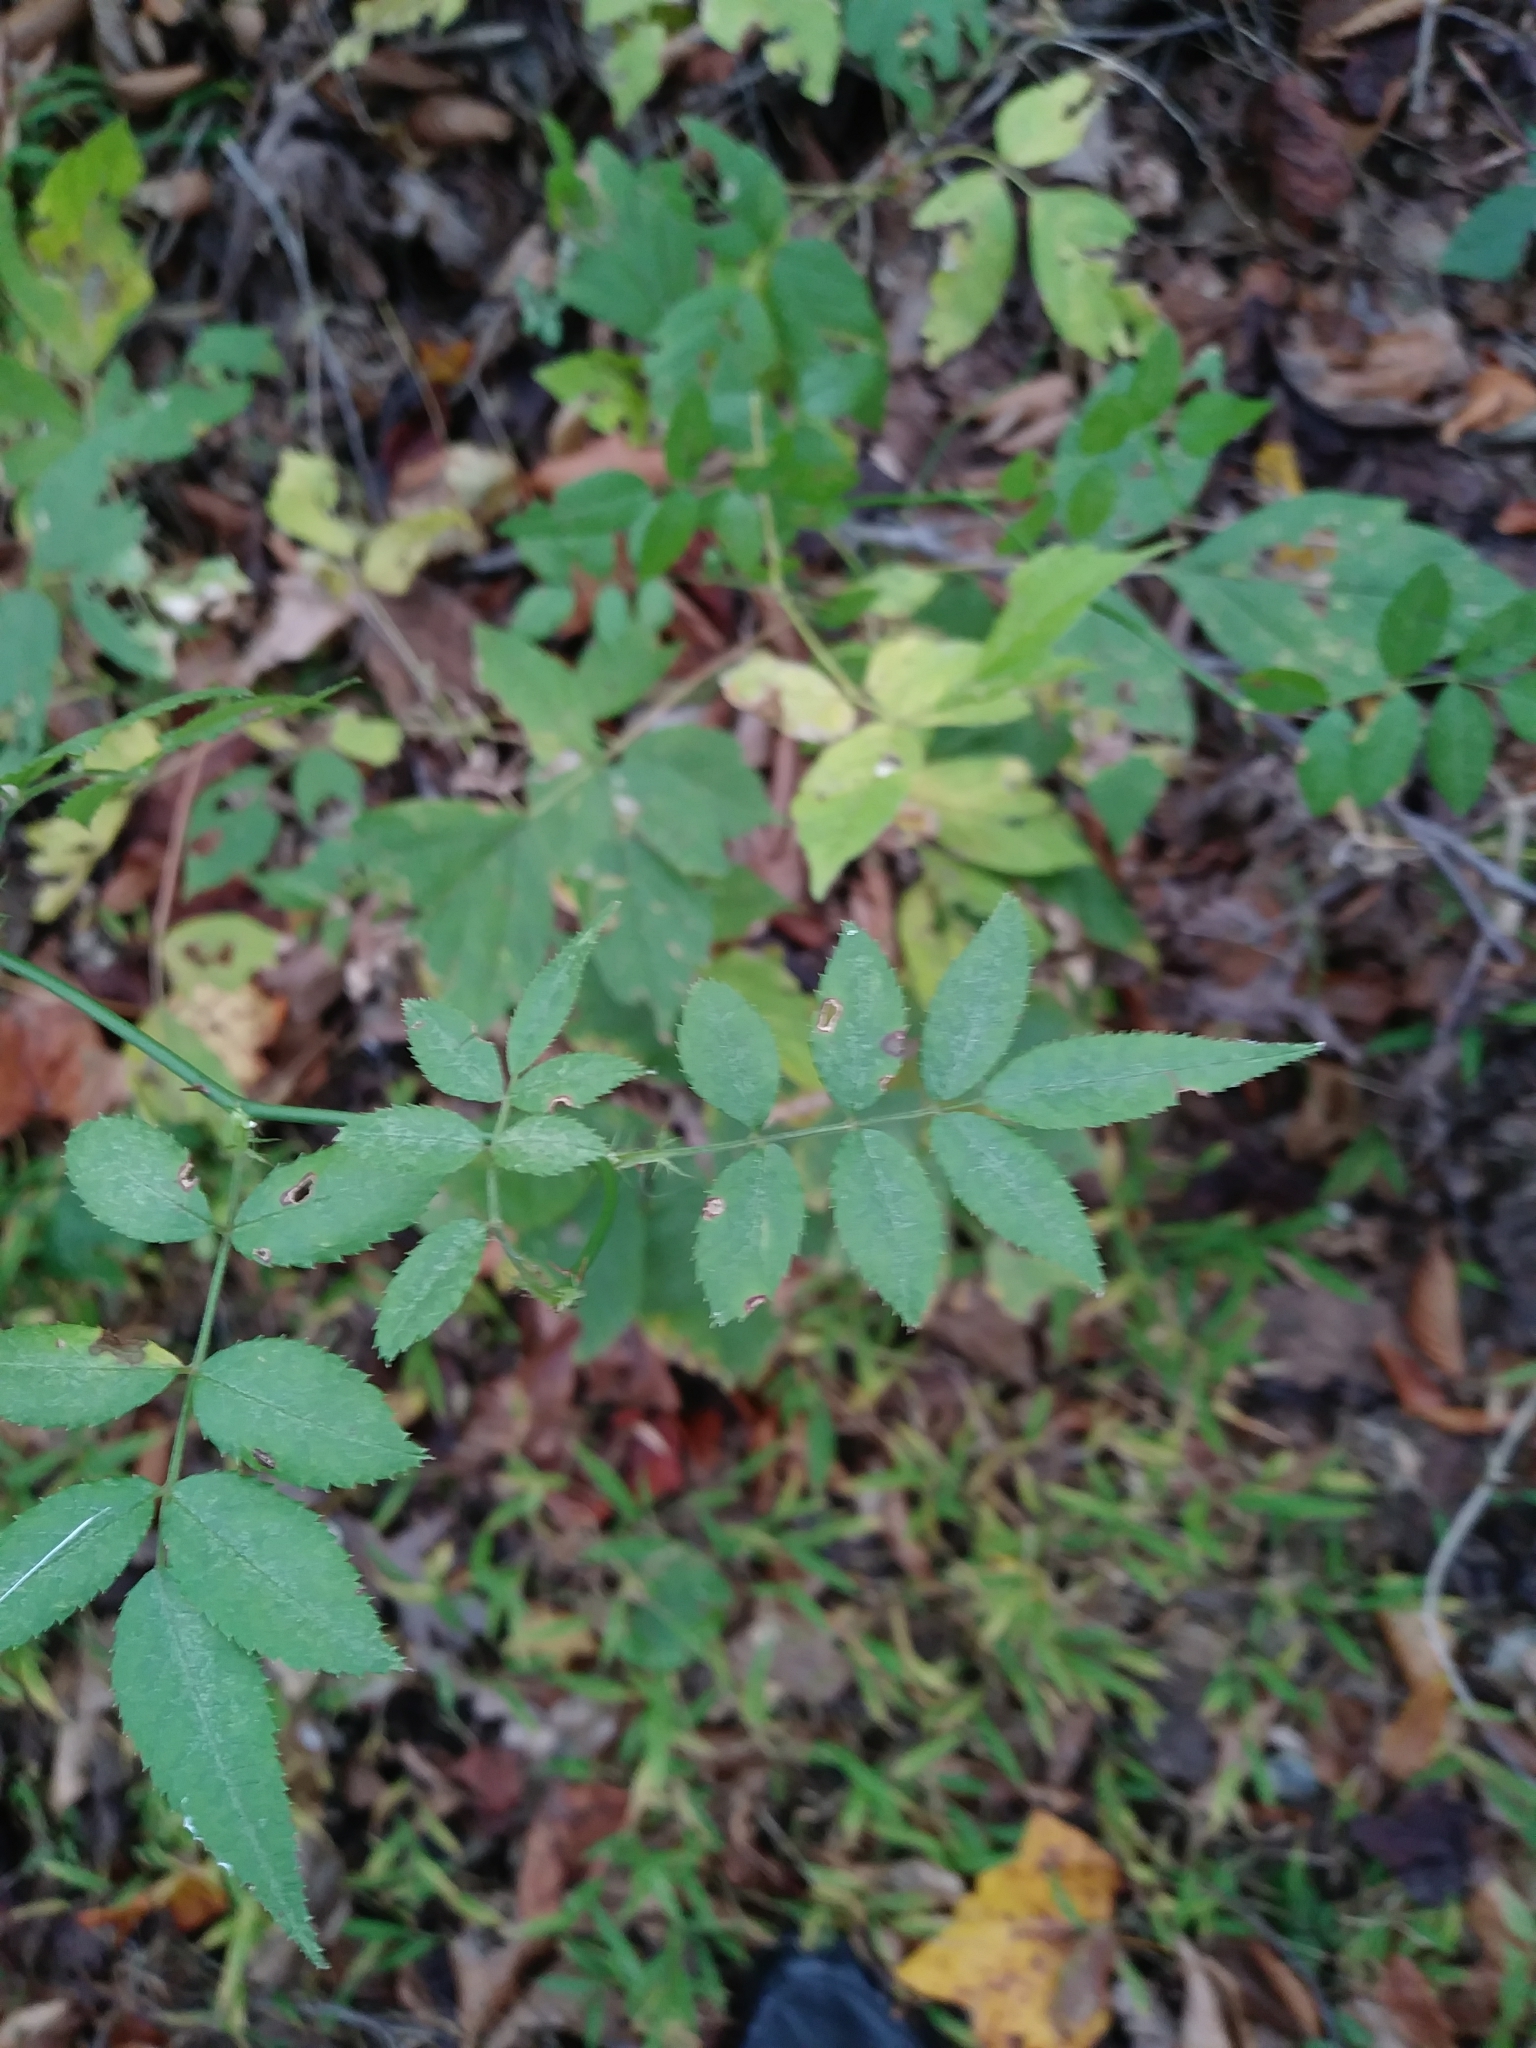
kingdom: Plantae
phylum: Tracheophyta
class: Magnoliopsida
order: Rosales
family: Rosaceae
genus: Rosa
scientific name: Rosa multiflora
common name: Multiflora rose
